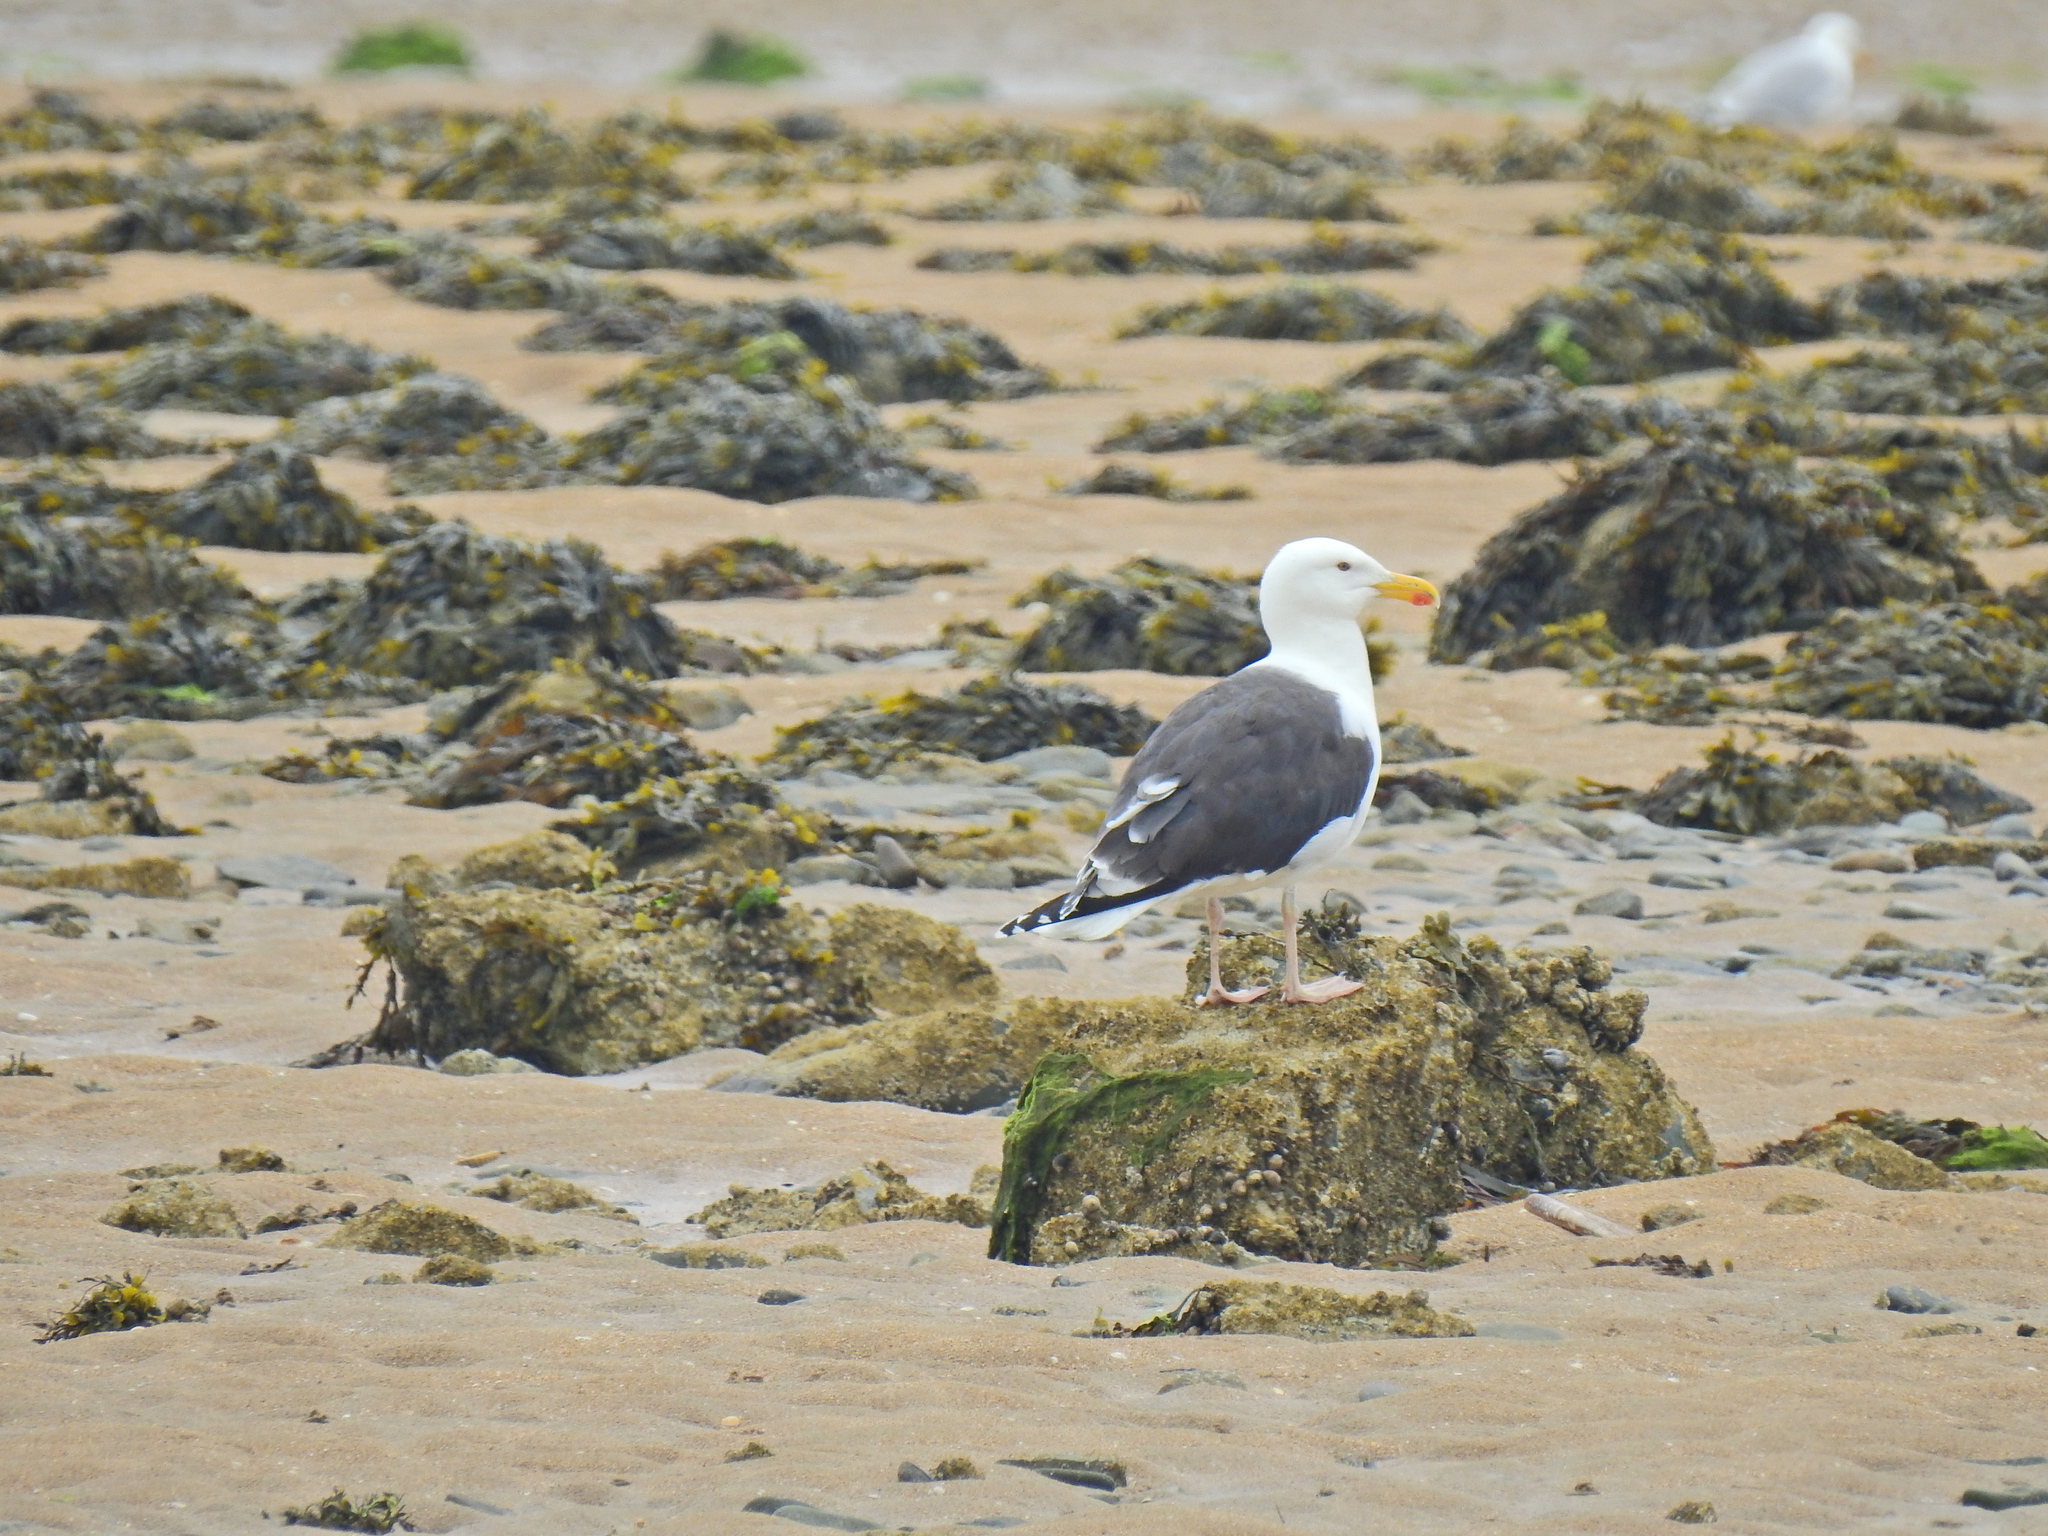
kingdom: Animalia
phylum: Chordata
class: Aves
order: Charadriiformes
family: Laridae
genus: Larus
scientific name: Larus marinus
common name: Great black-backed gull
